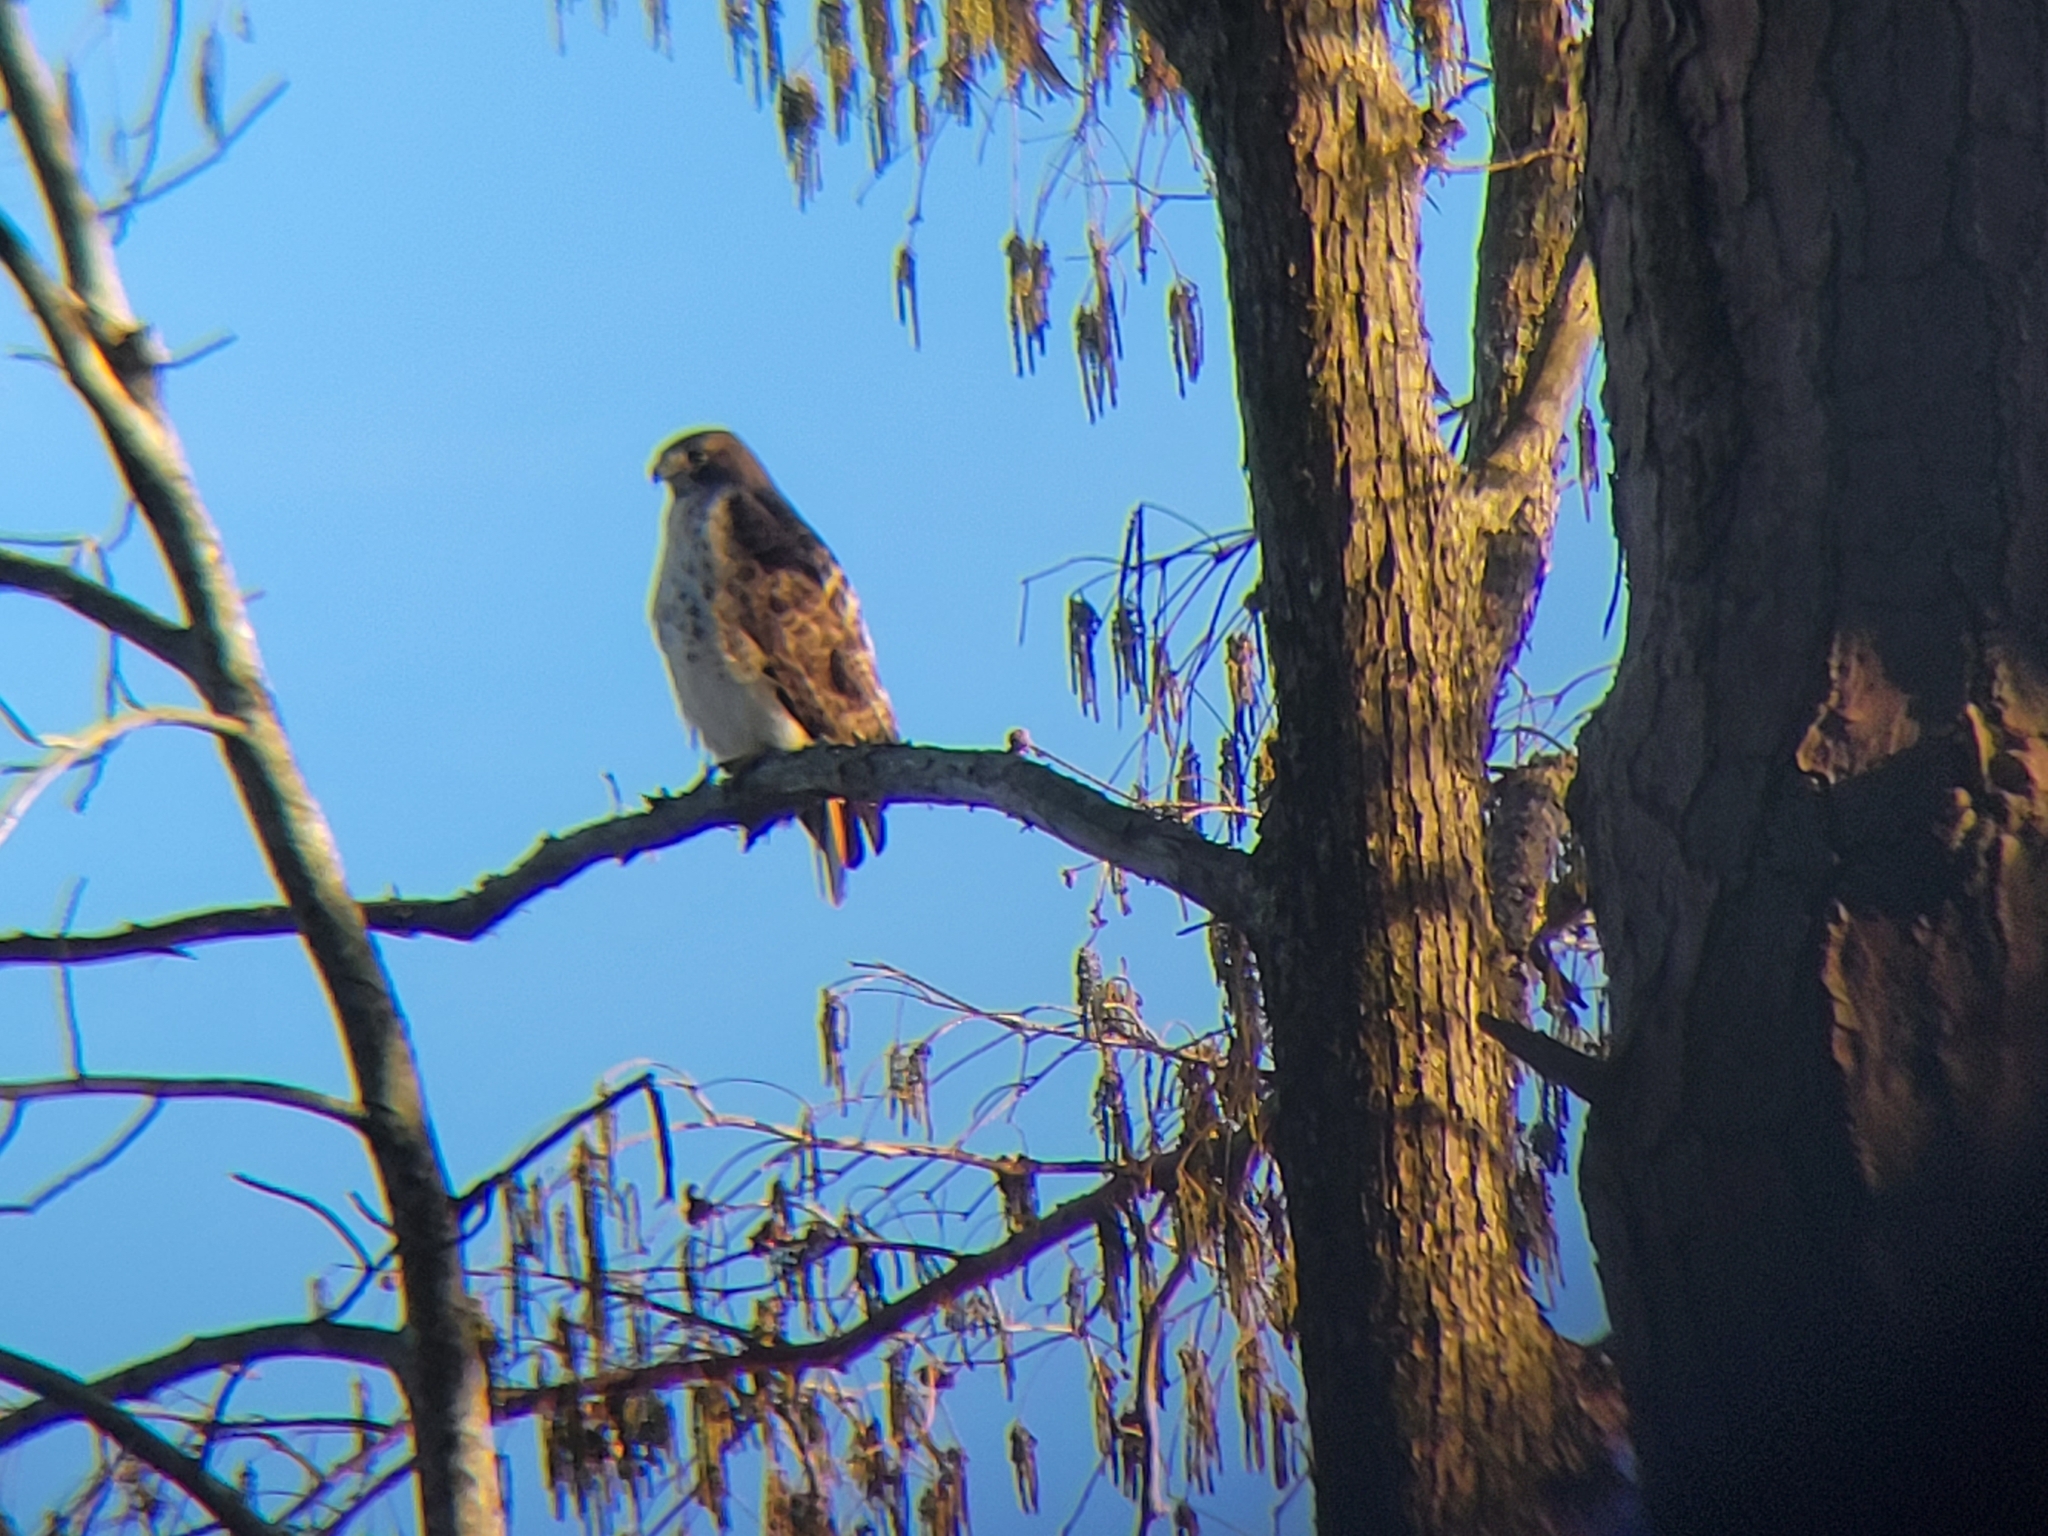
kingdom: Animalia
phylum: Chordata
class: Aves
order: Accipitriformes
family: Accipitridae
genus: Buteo
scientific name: Buteo jamaicensis
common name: Red-tailed hawk
